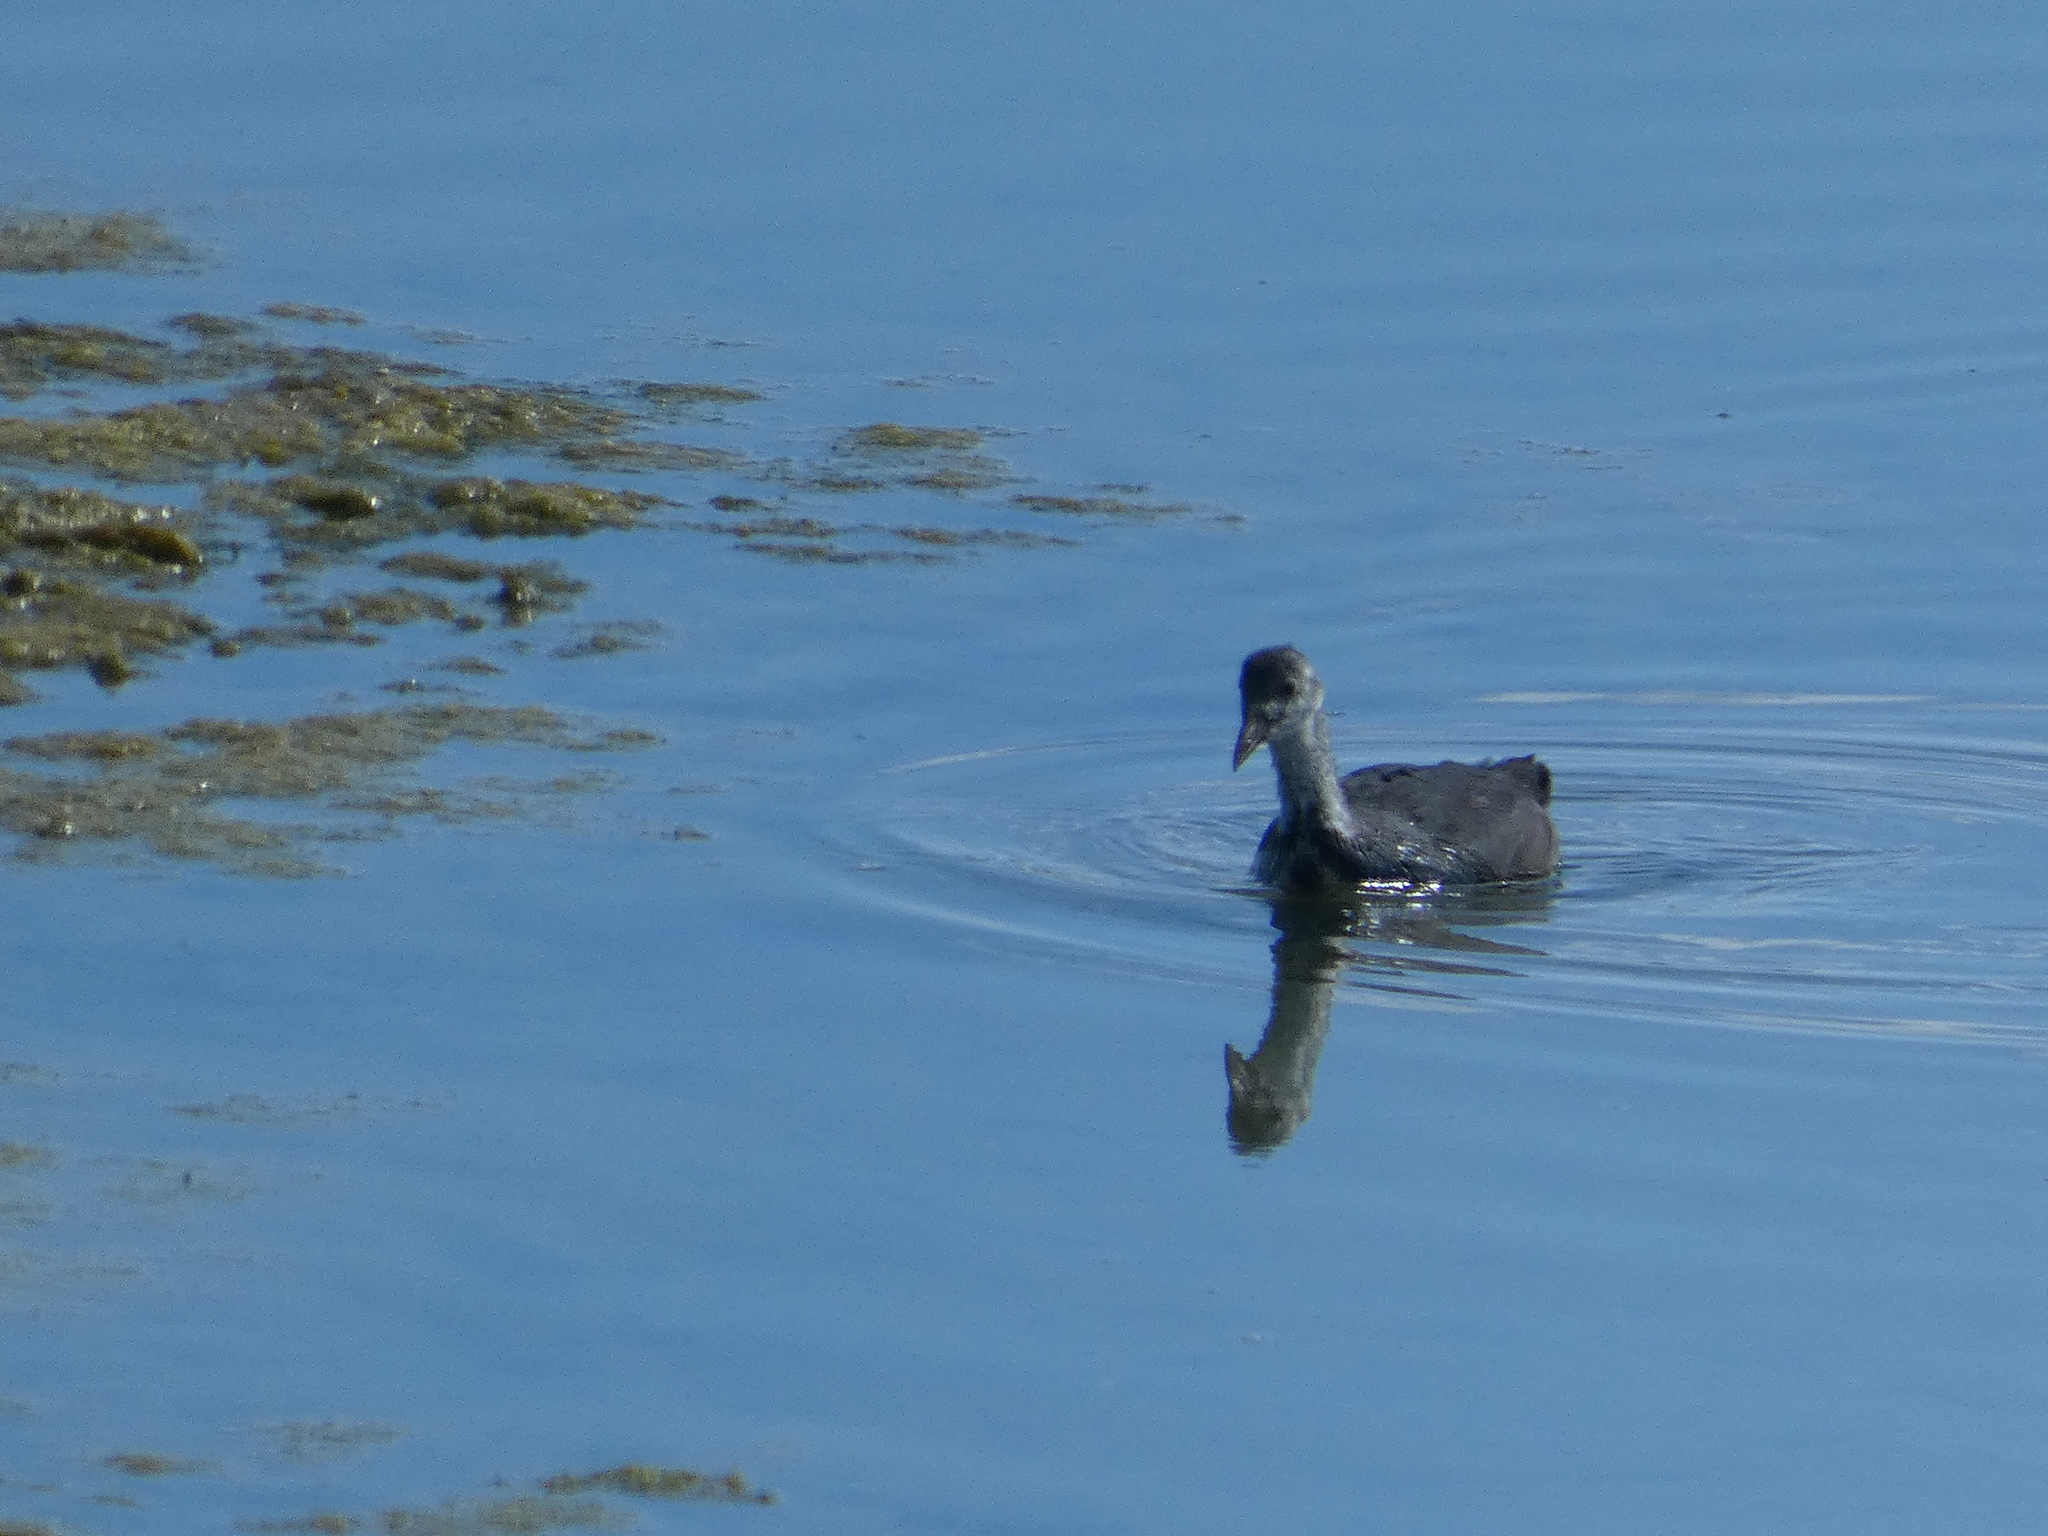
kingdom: Animalia
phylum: Chordata
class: Aves
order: Gruiformes
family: Rallidae
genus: Fulica
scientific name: Fulica atra
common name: Eurasian coot
